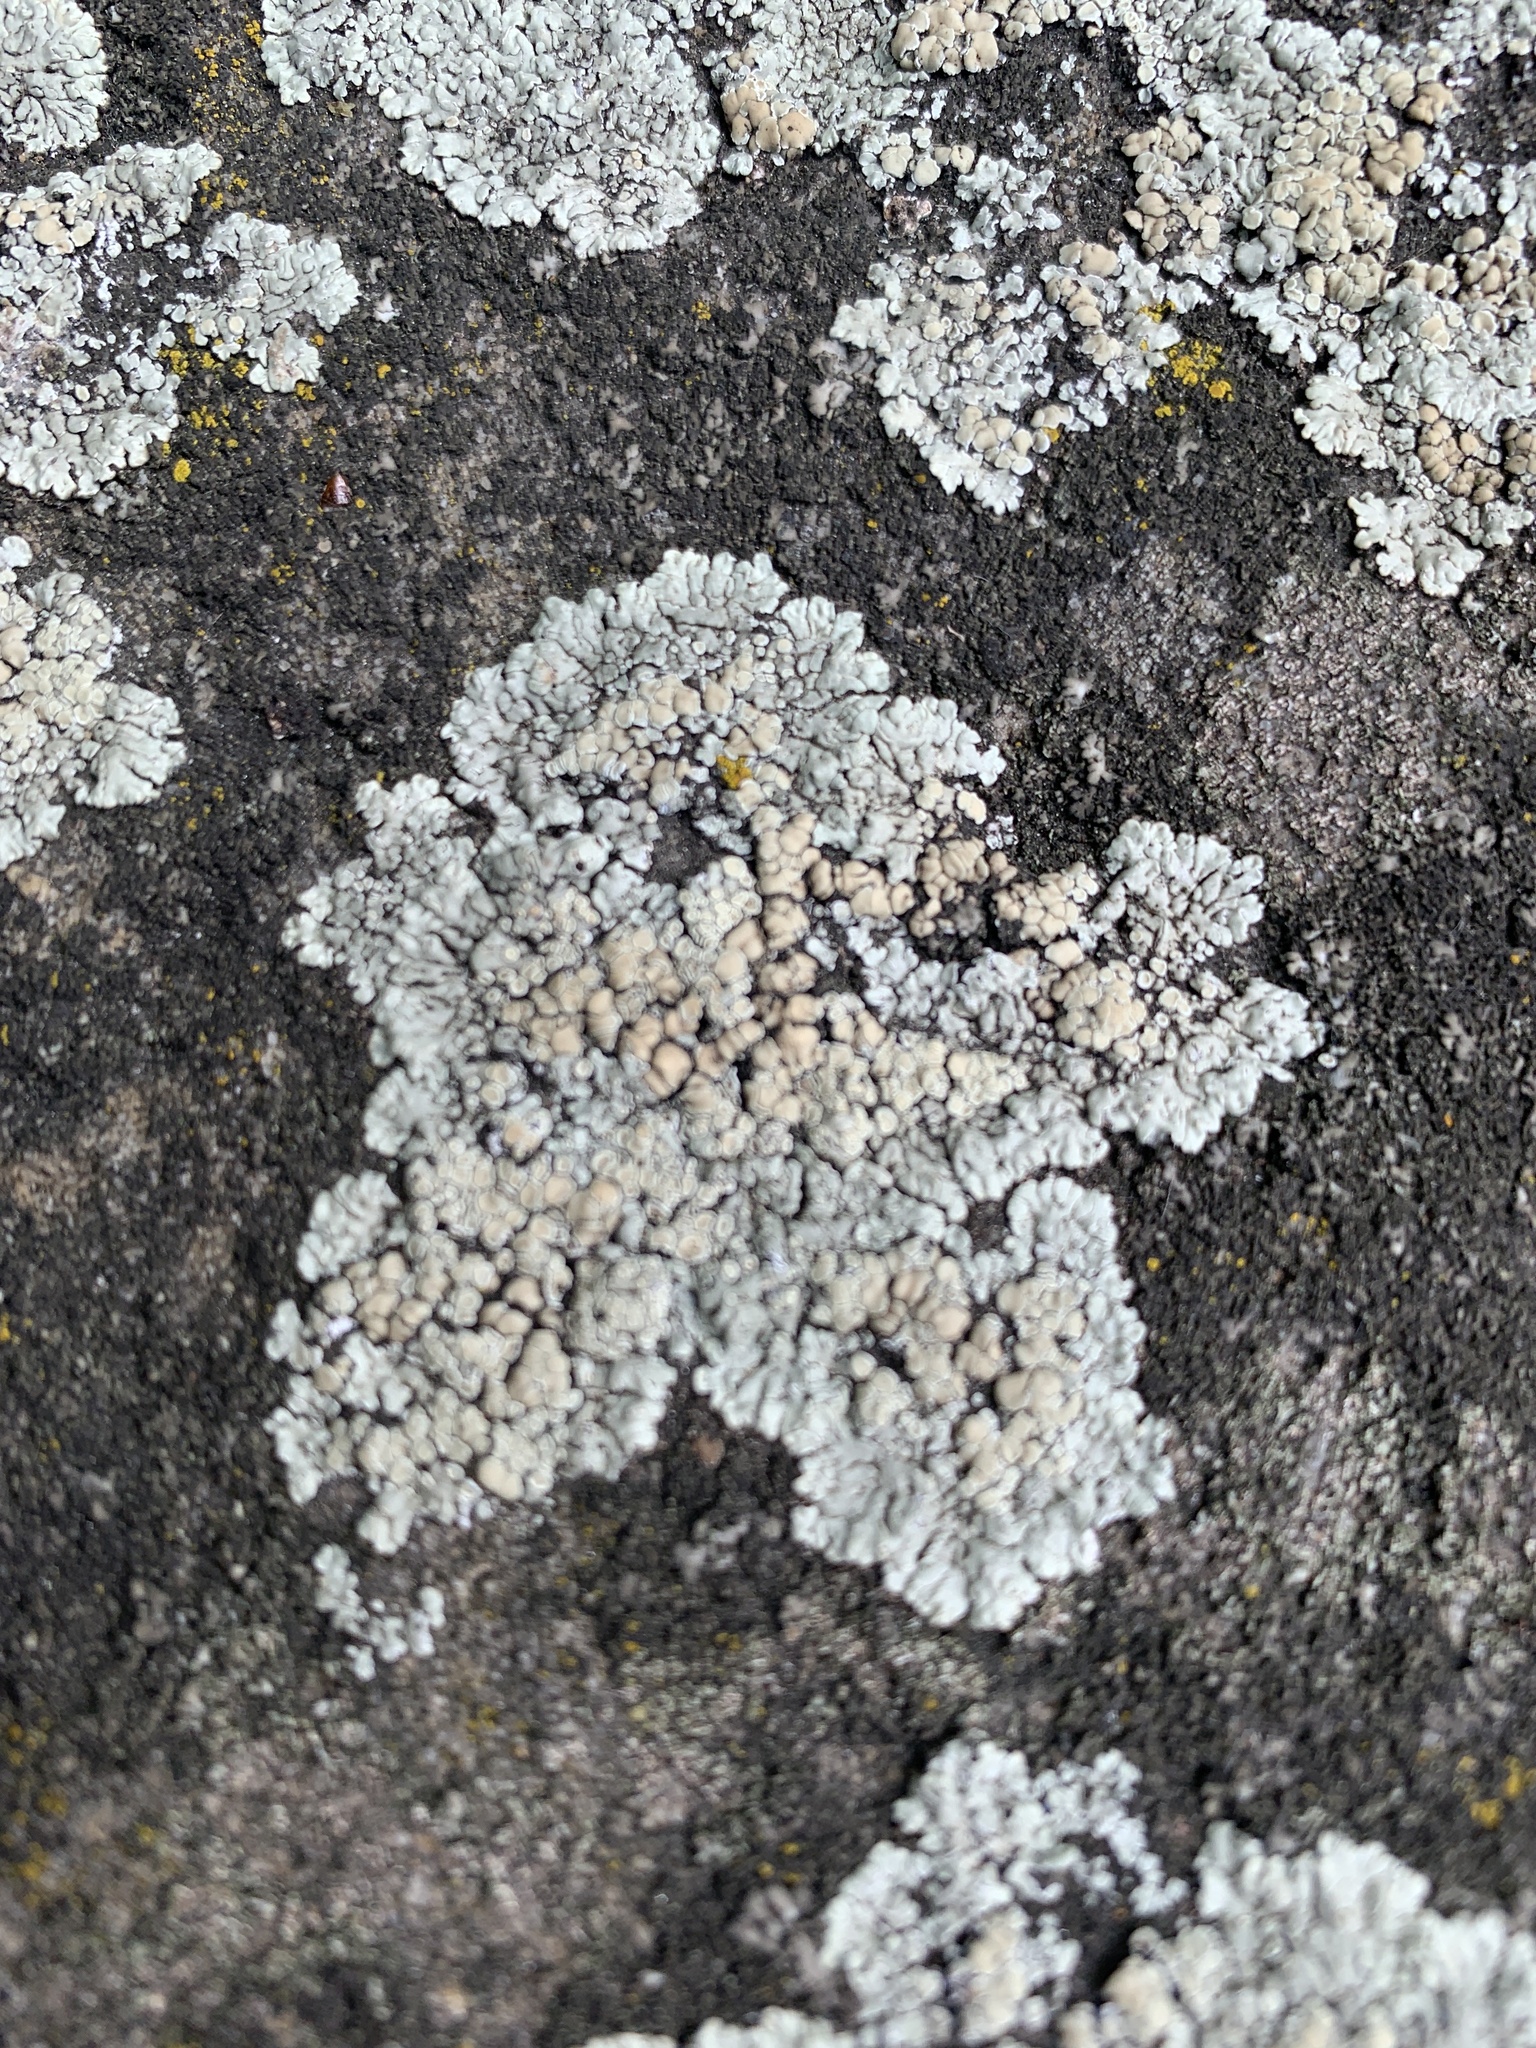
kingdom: Fungi
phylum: Ascomycota
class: Lecanoromycetes
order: Lecanorales
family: Lecanoraceae
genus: Protoparmeliopsis
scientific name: Protoparmeliopsis muralis
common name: Stonewall rim lichen
